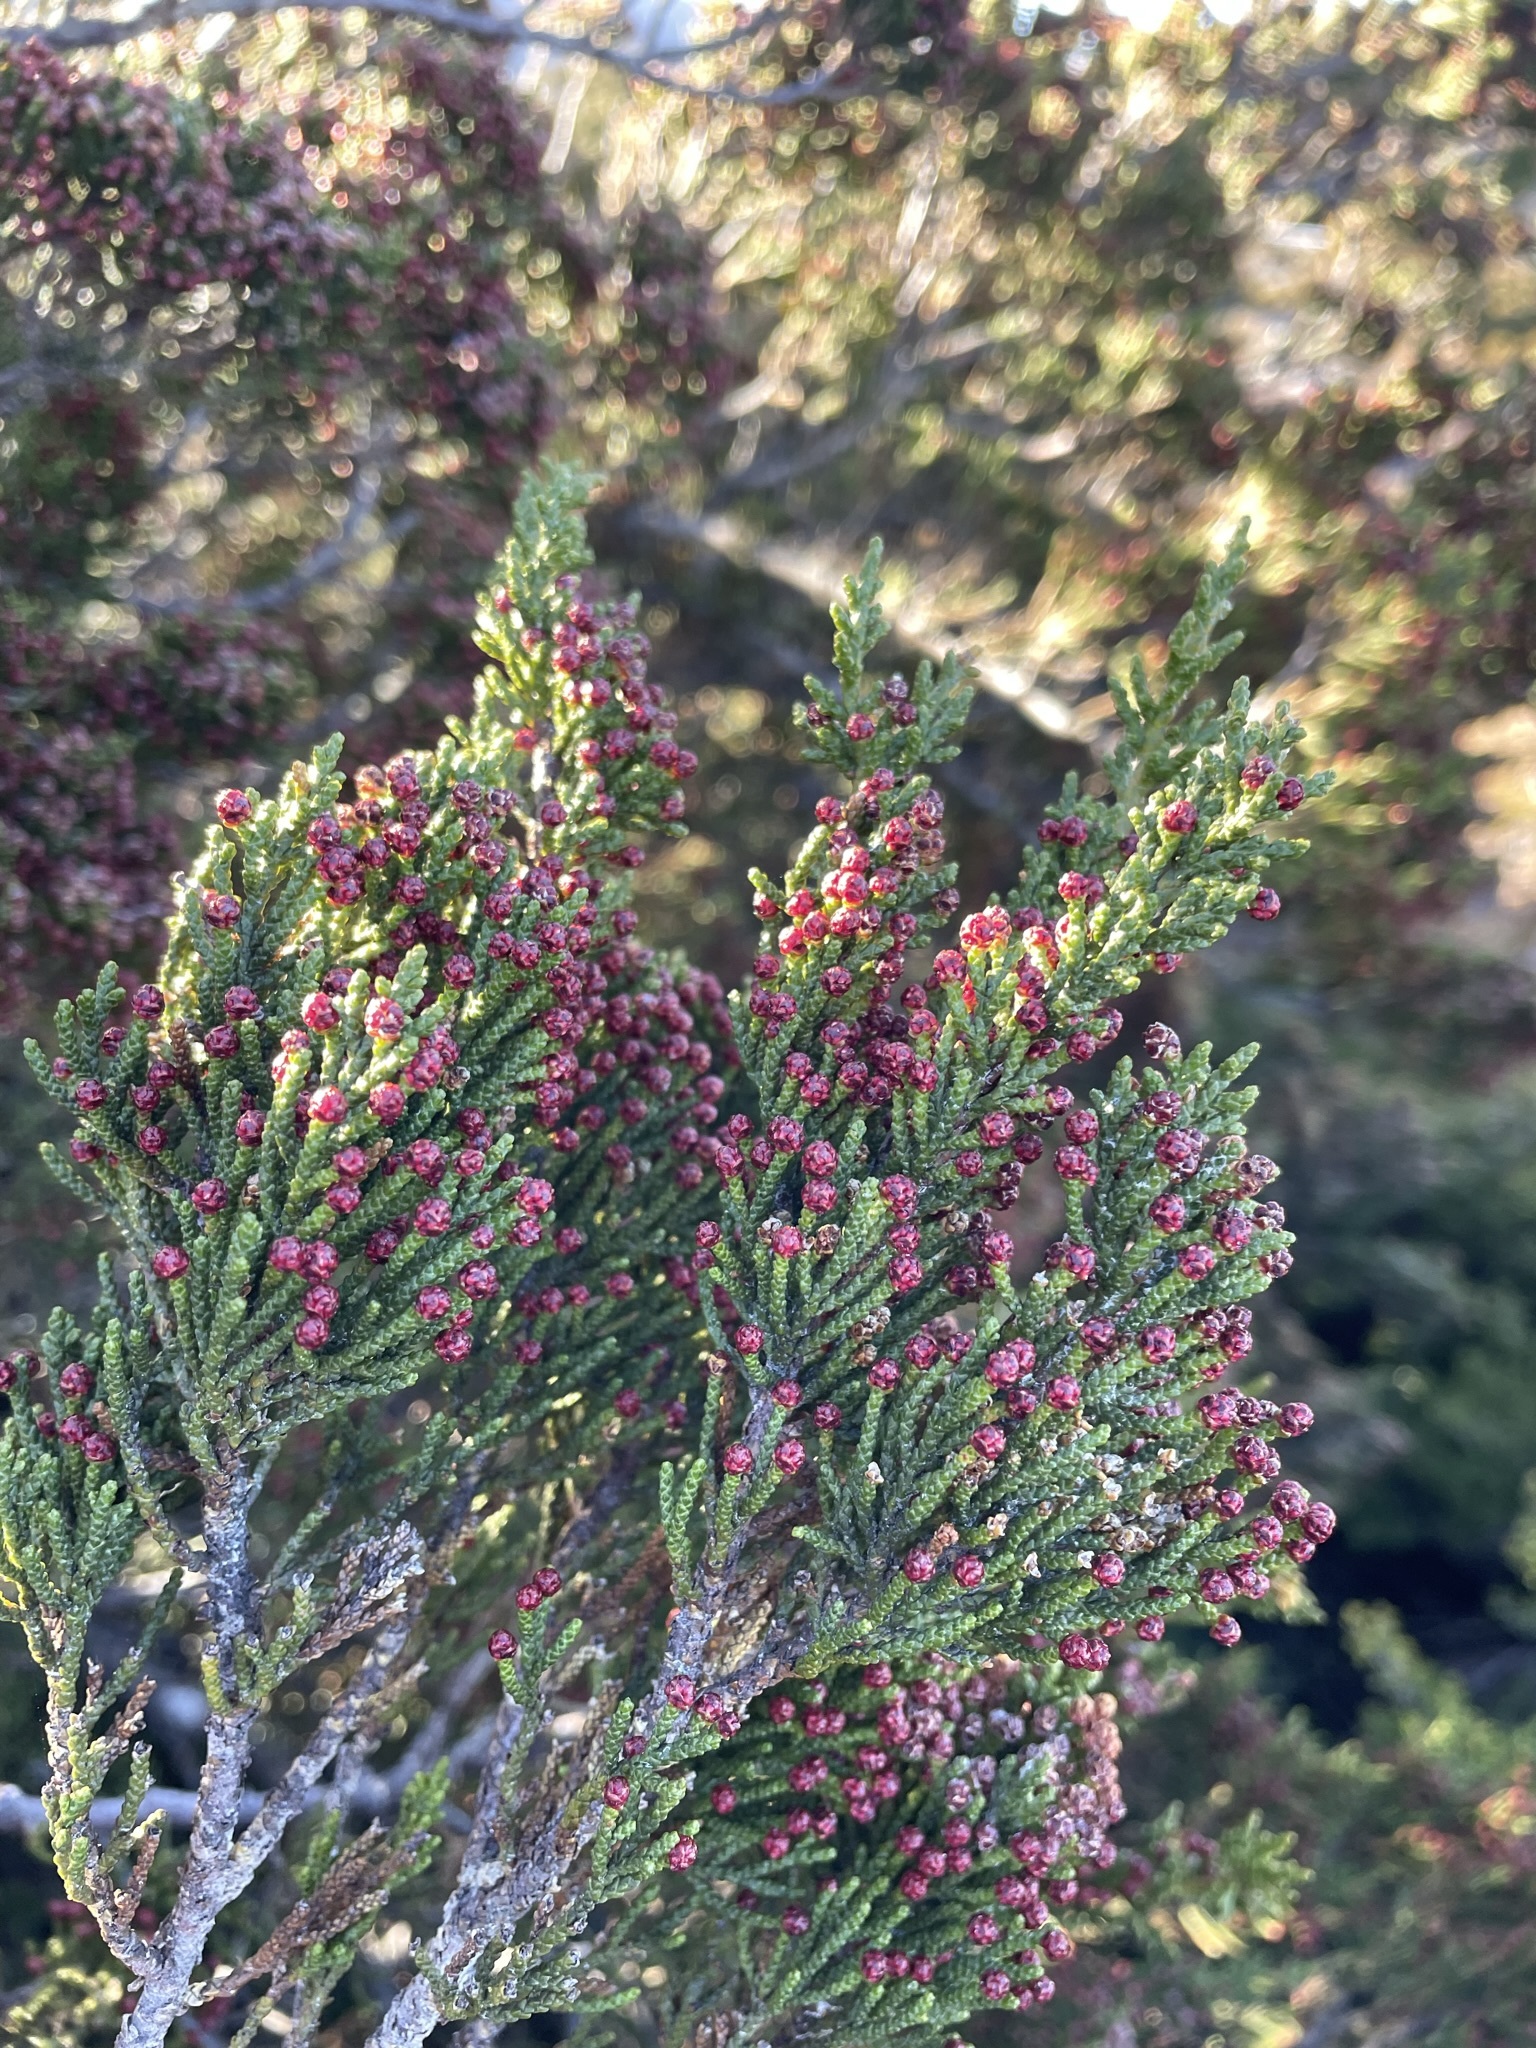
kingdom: Plantae
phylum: Tracheophyta
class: Pinopsida
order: Pinales
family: Podocarpaceae
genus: Pherosphaera
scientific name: Pherosphaera hookeriana
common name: Mount mawson pine
